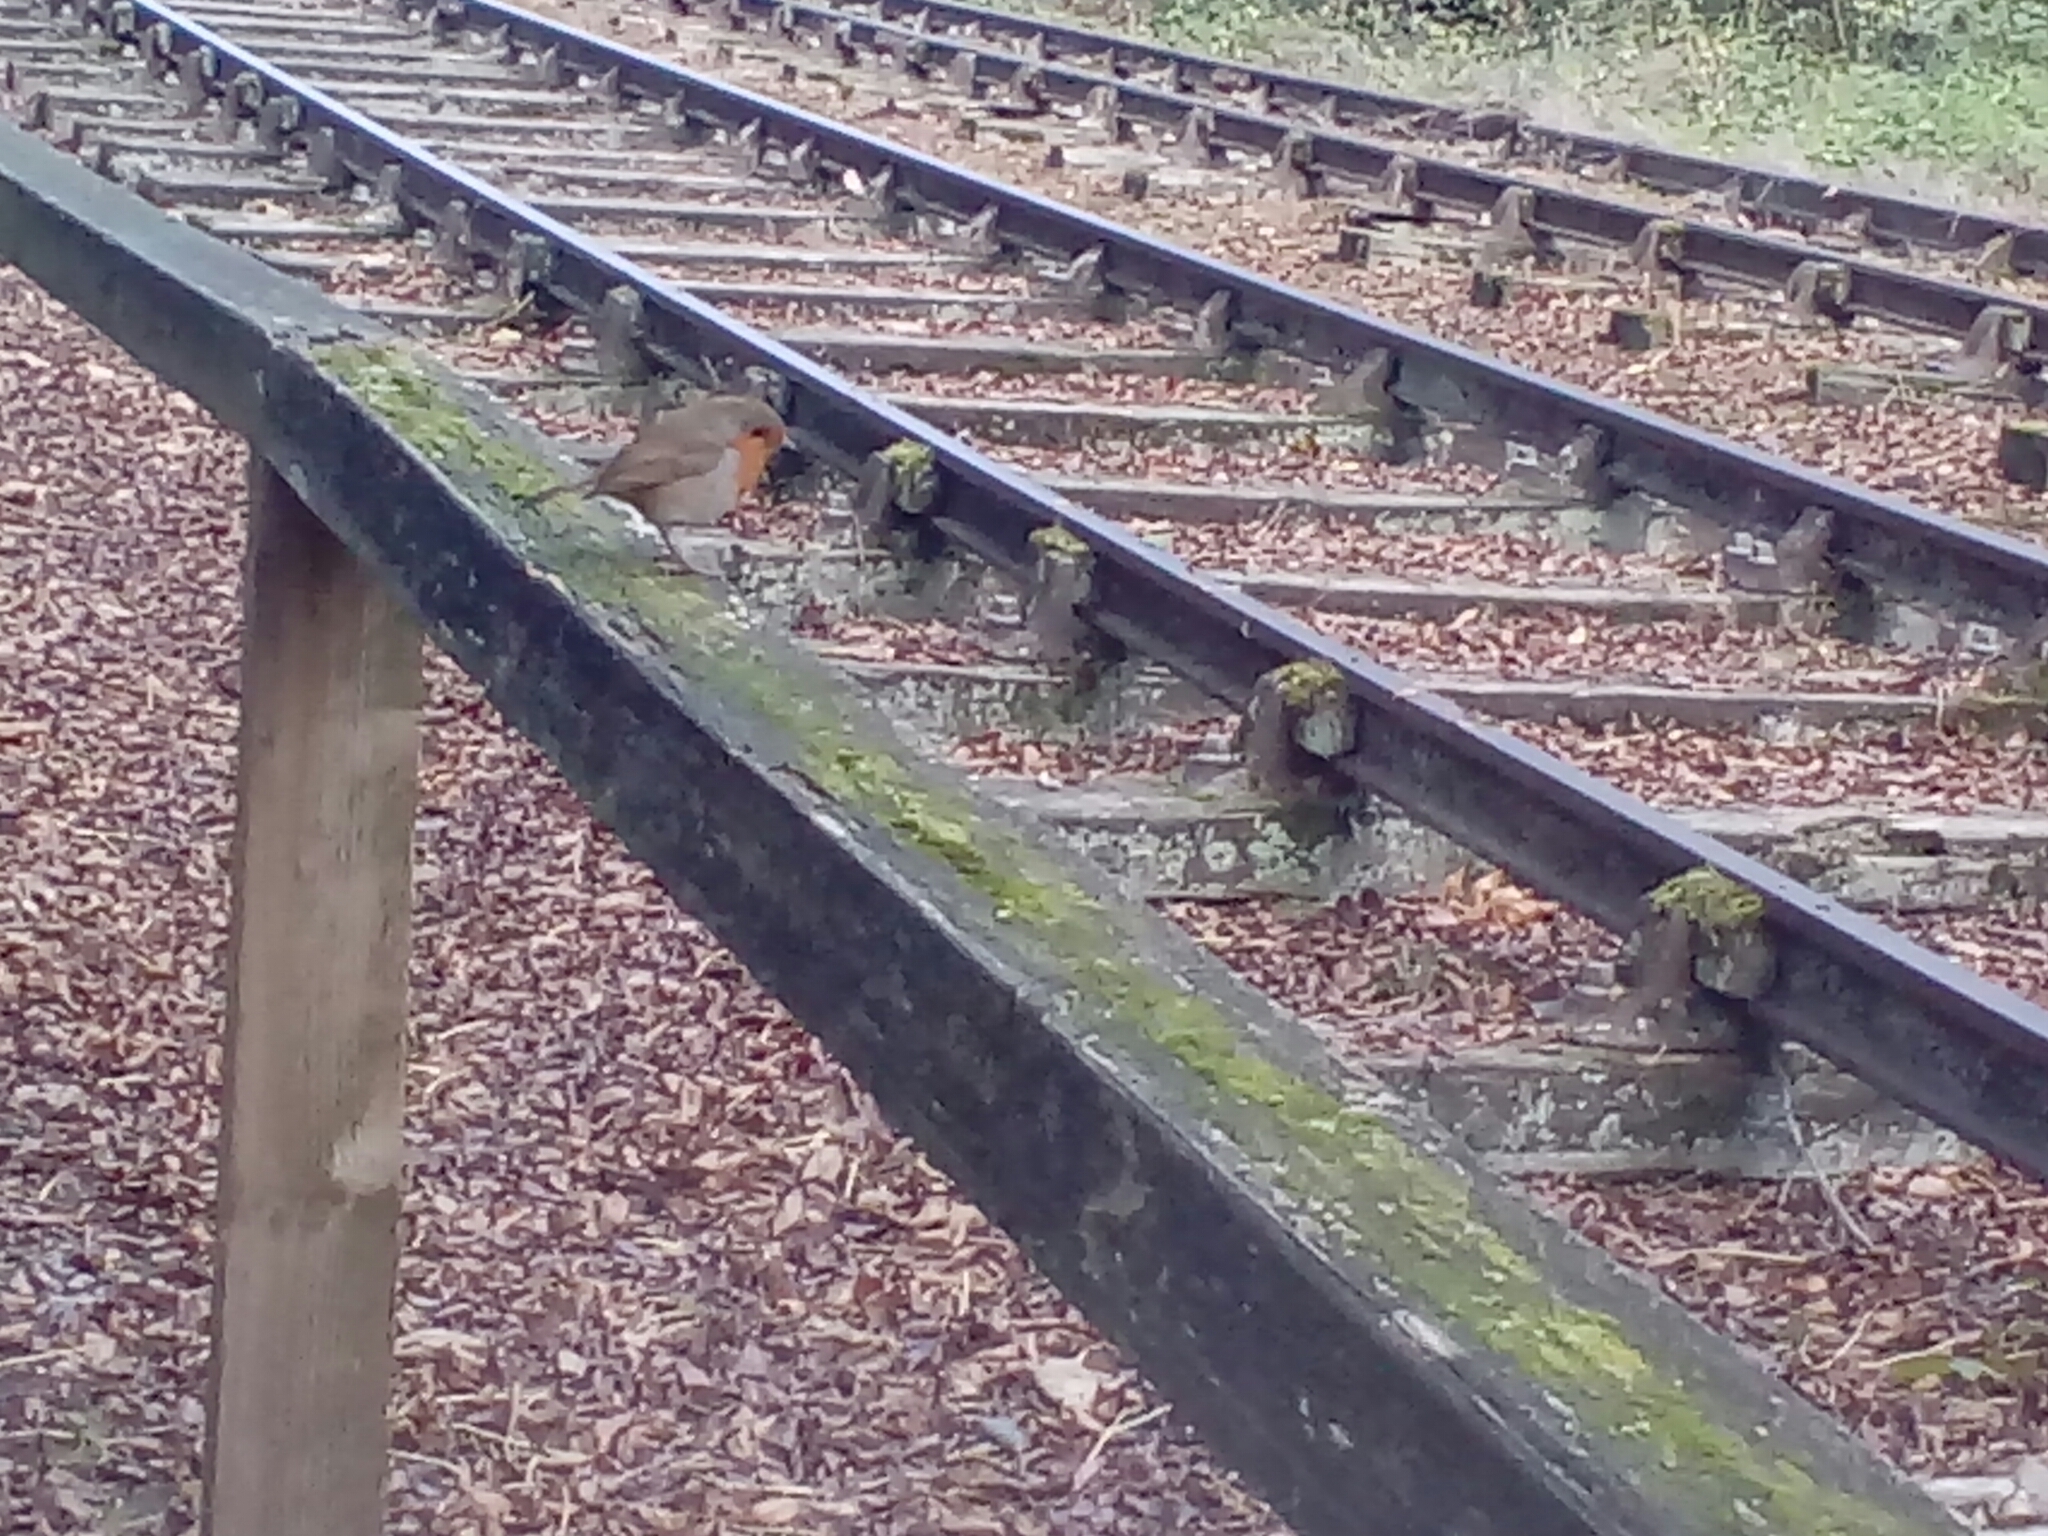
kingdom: Animalia
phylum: Chordata
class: Aves
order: Passeriformes
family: Muscicapidae
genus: Erithacus
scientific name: Erithacus rubecula
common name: European robin
